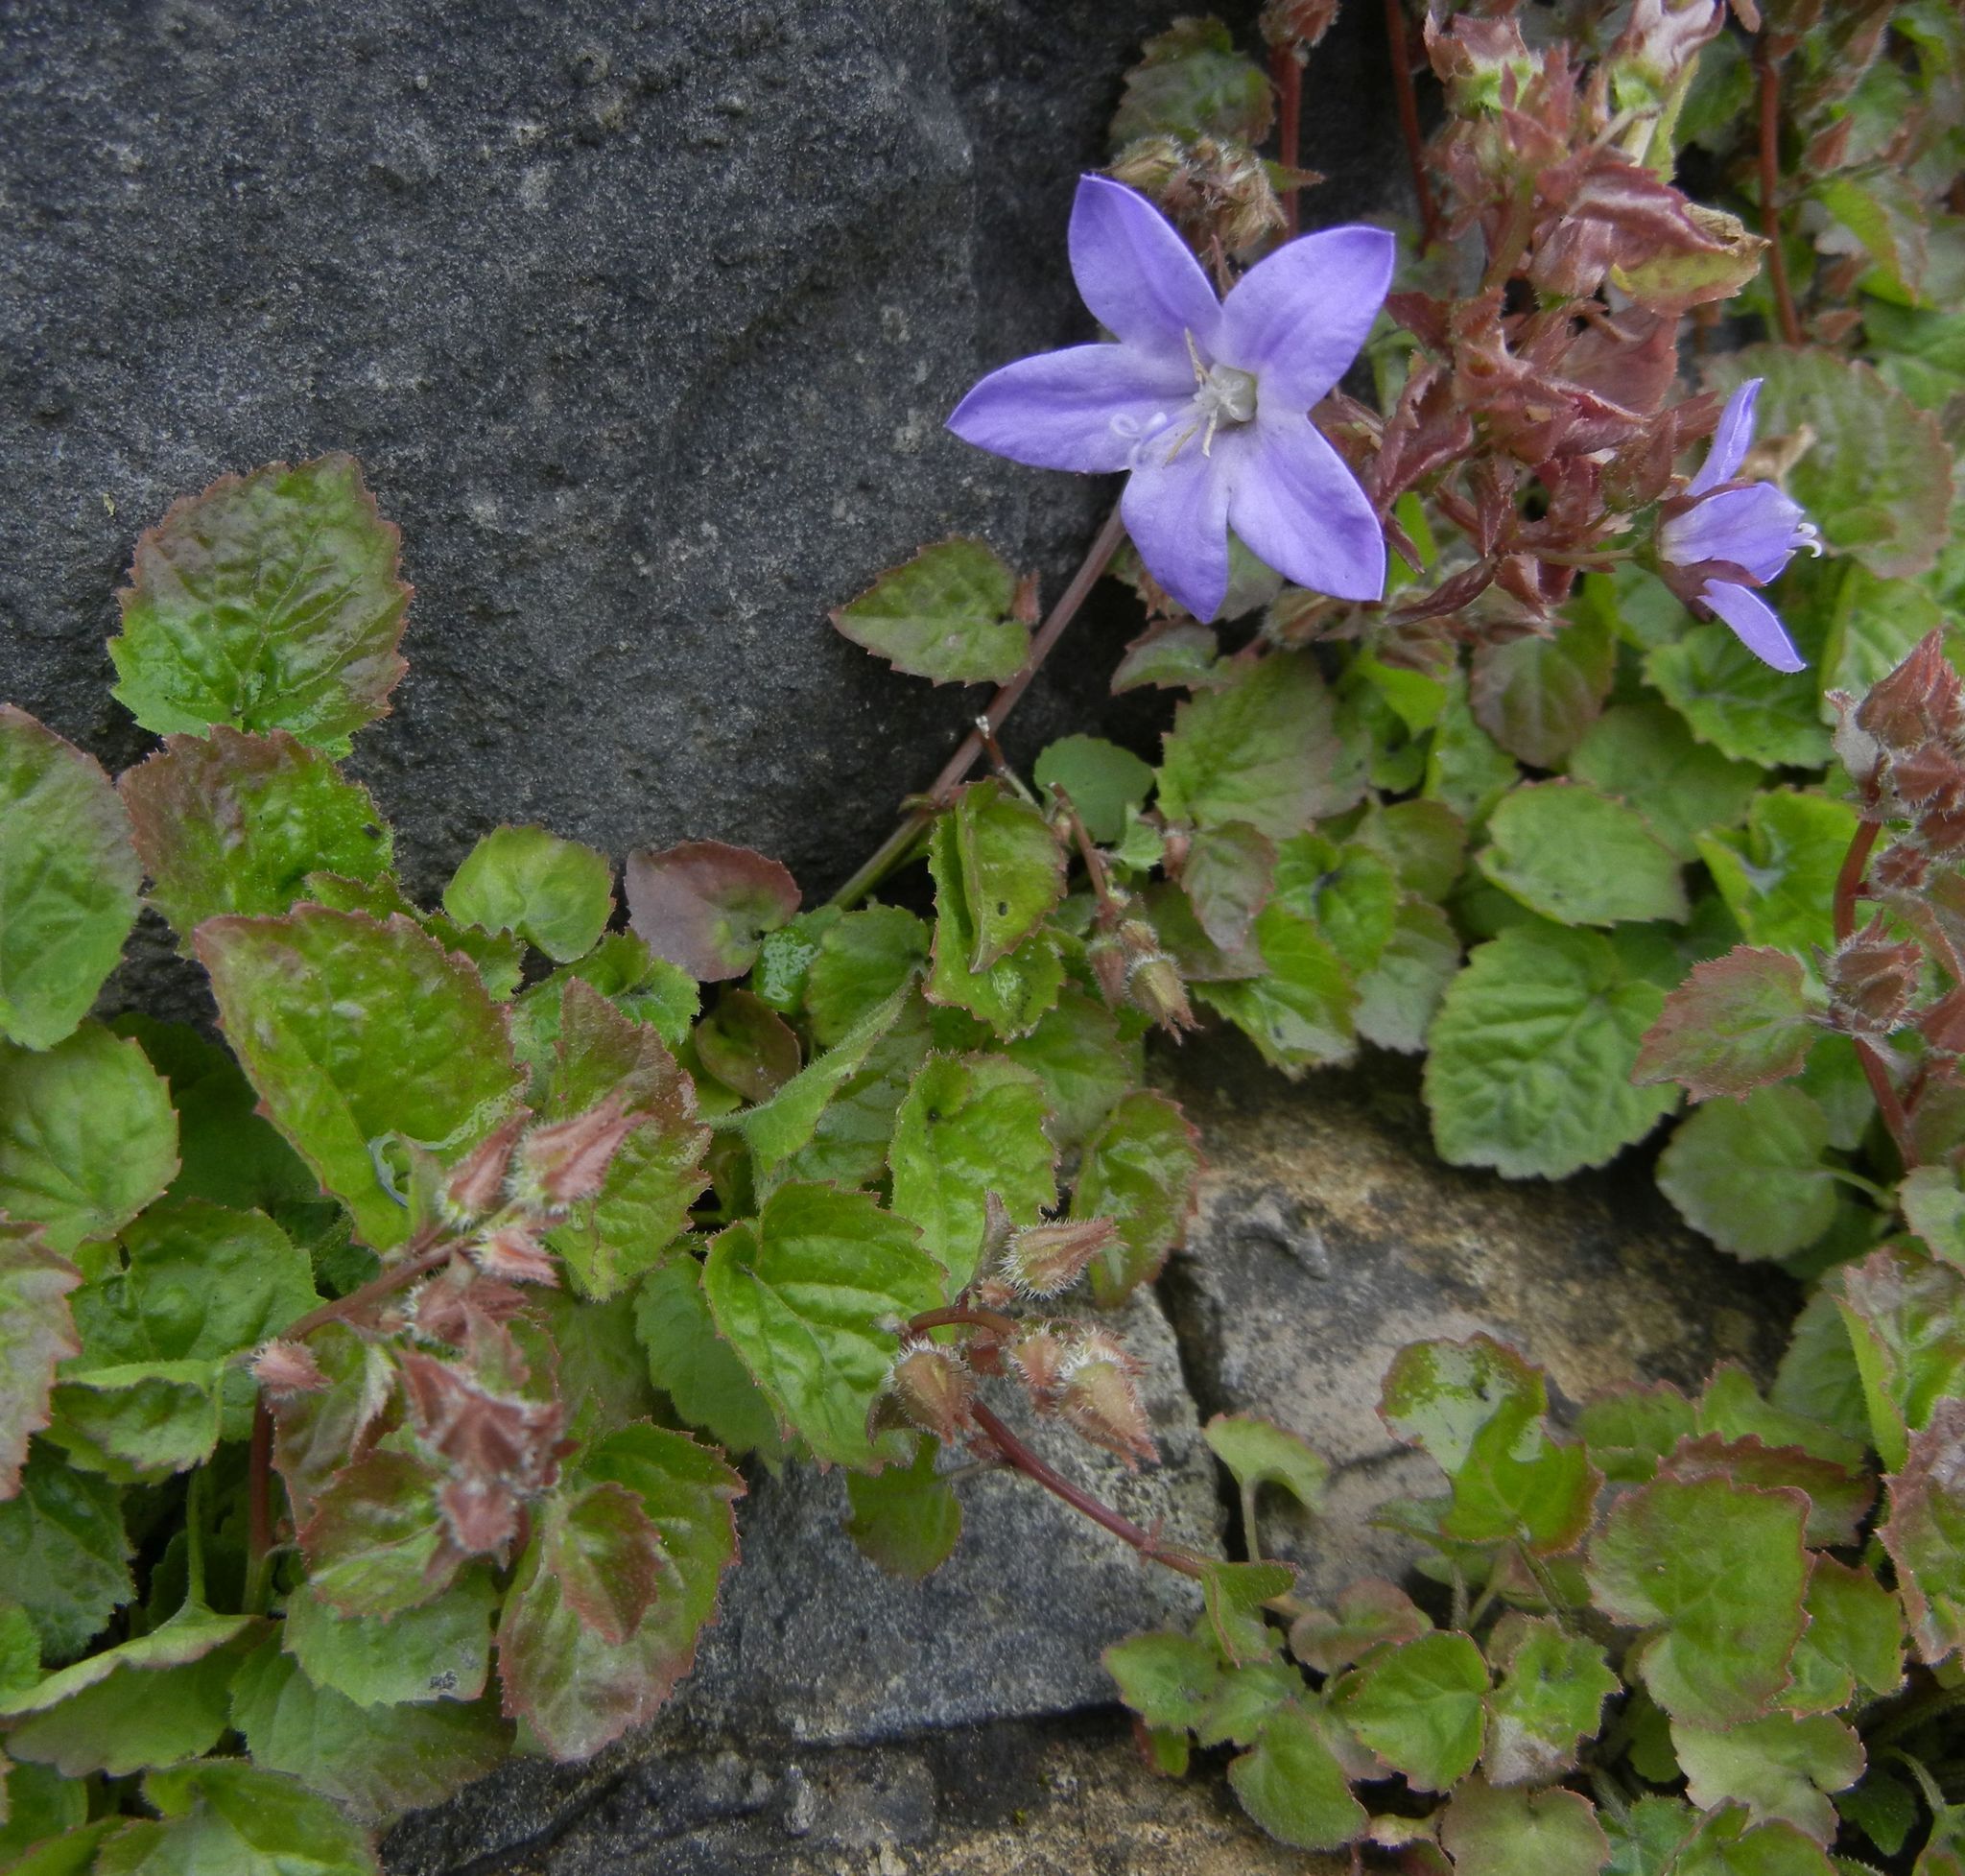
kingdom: Plantae
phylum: Tracheophyta
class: Magnoliopsida
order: Asterales
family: Campanulaceae
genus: Campanula
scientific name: Campanula poscharskyana
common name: Trailing bellflower
